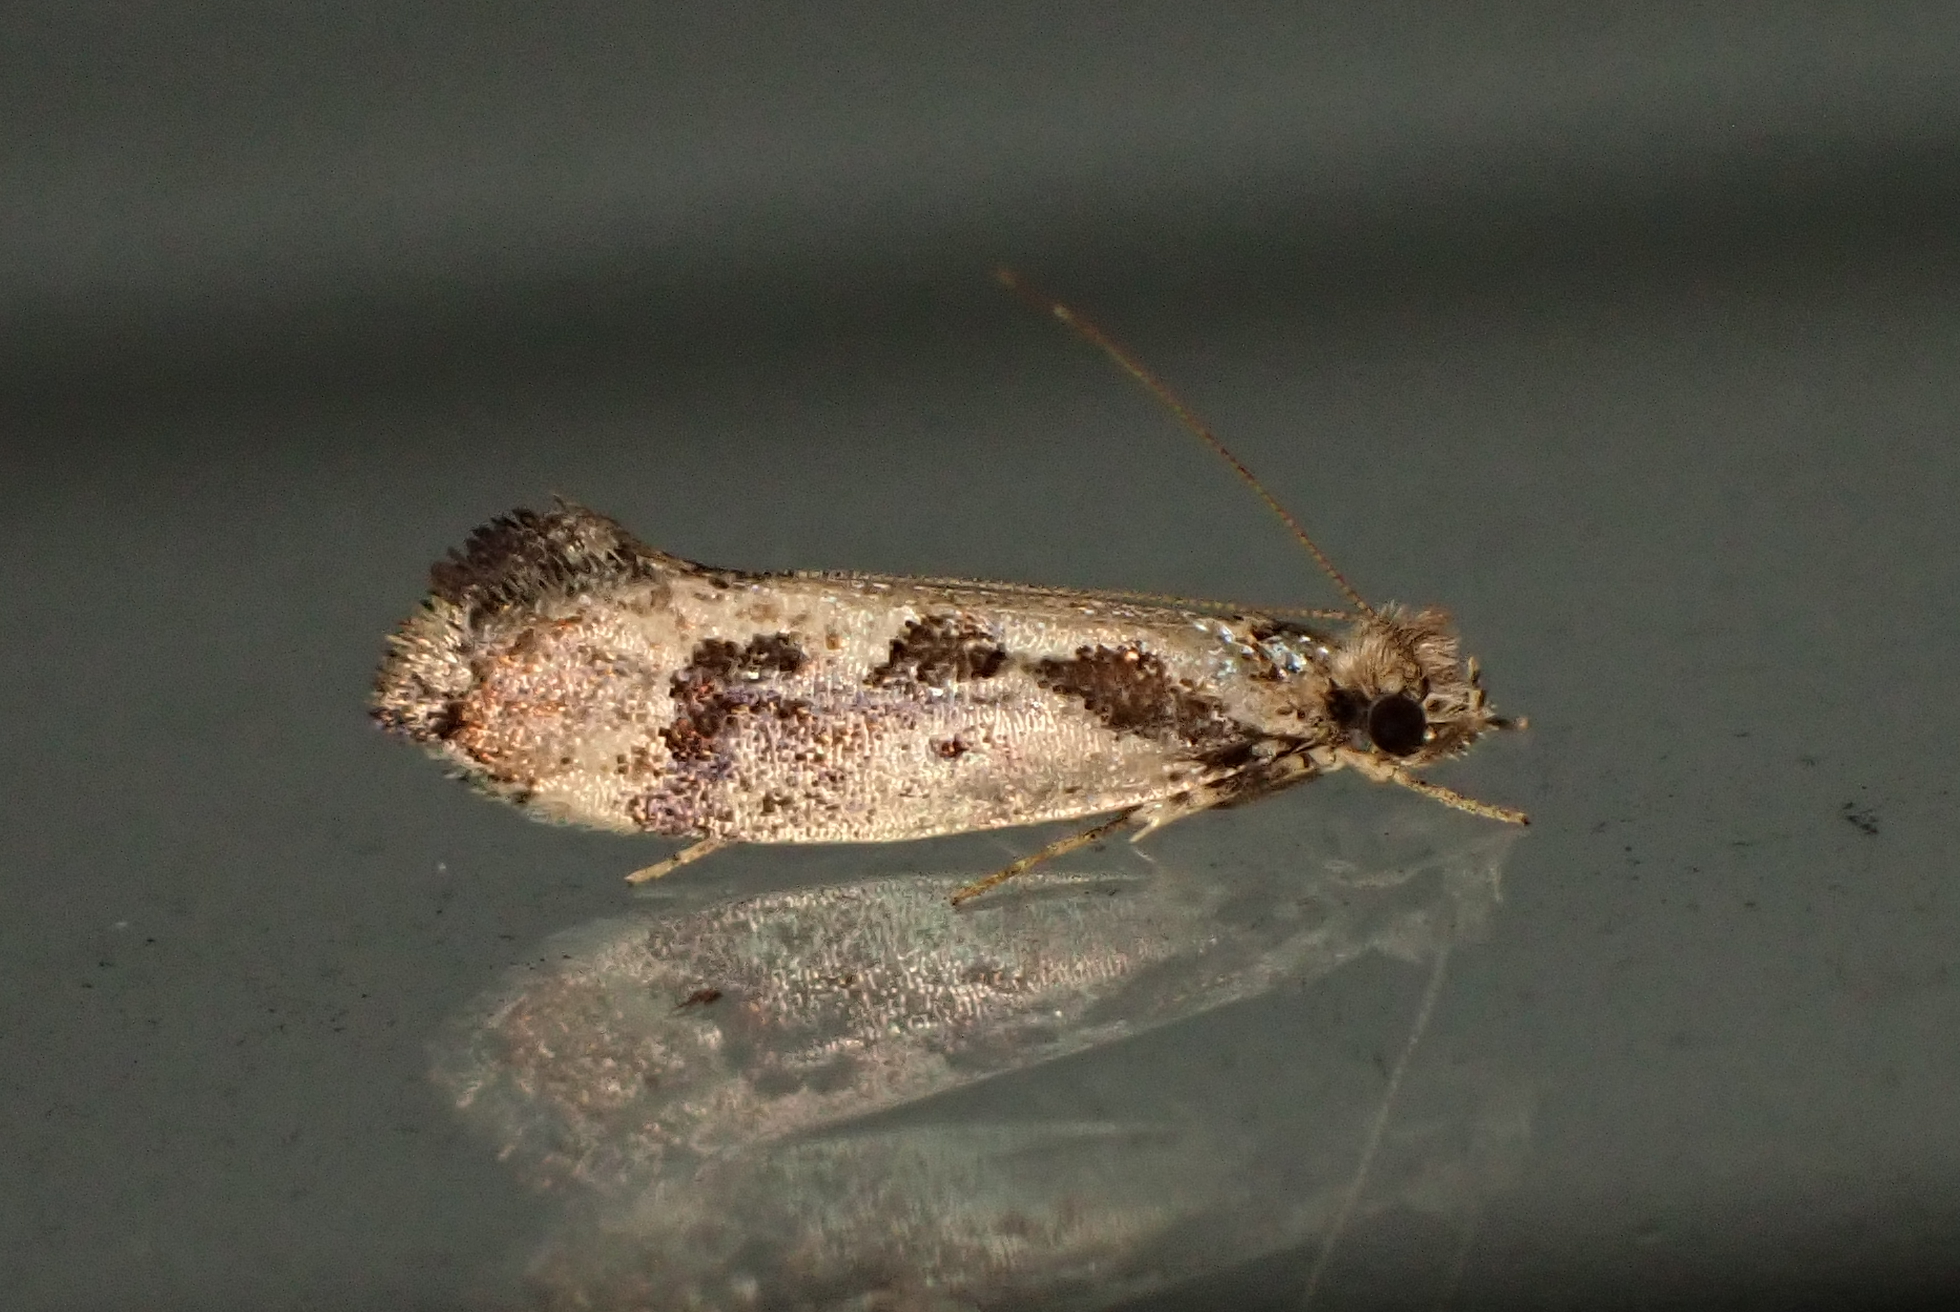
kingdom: Animalia
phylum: Arthropoda
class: Insecta
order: Lepidoptera
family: Tineidae
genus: Erechthias
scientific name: Erechthias capnitis
